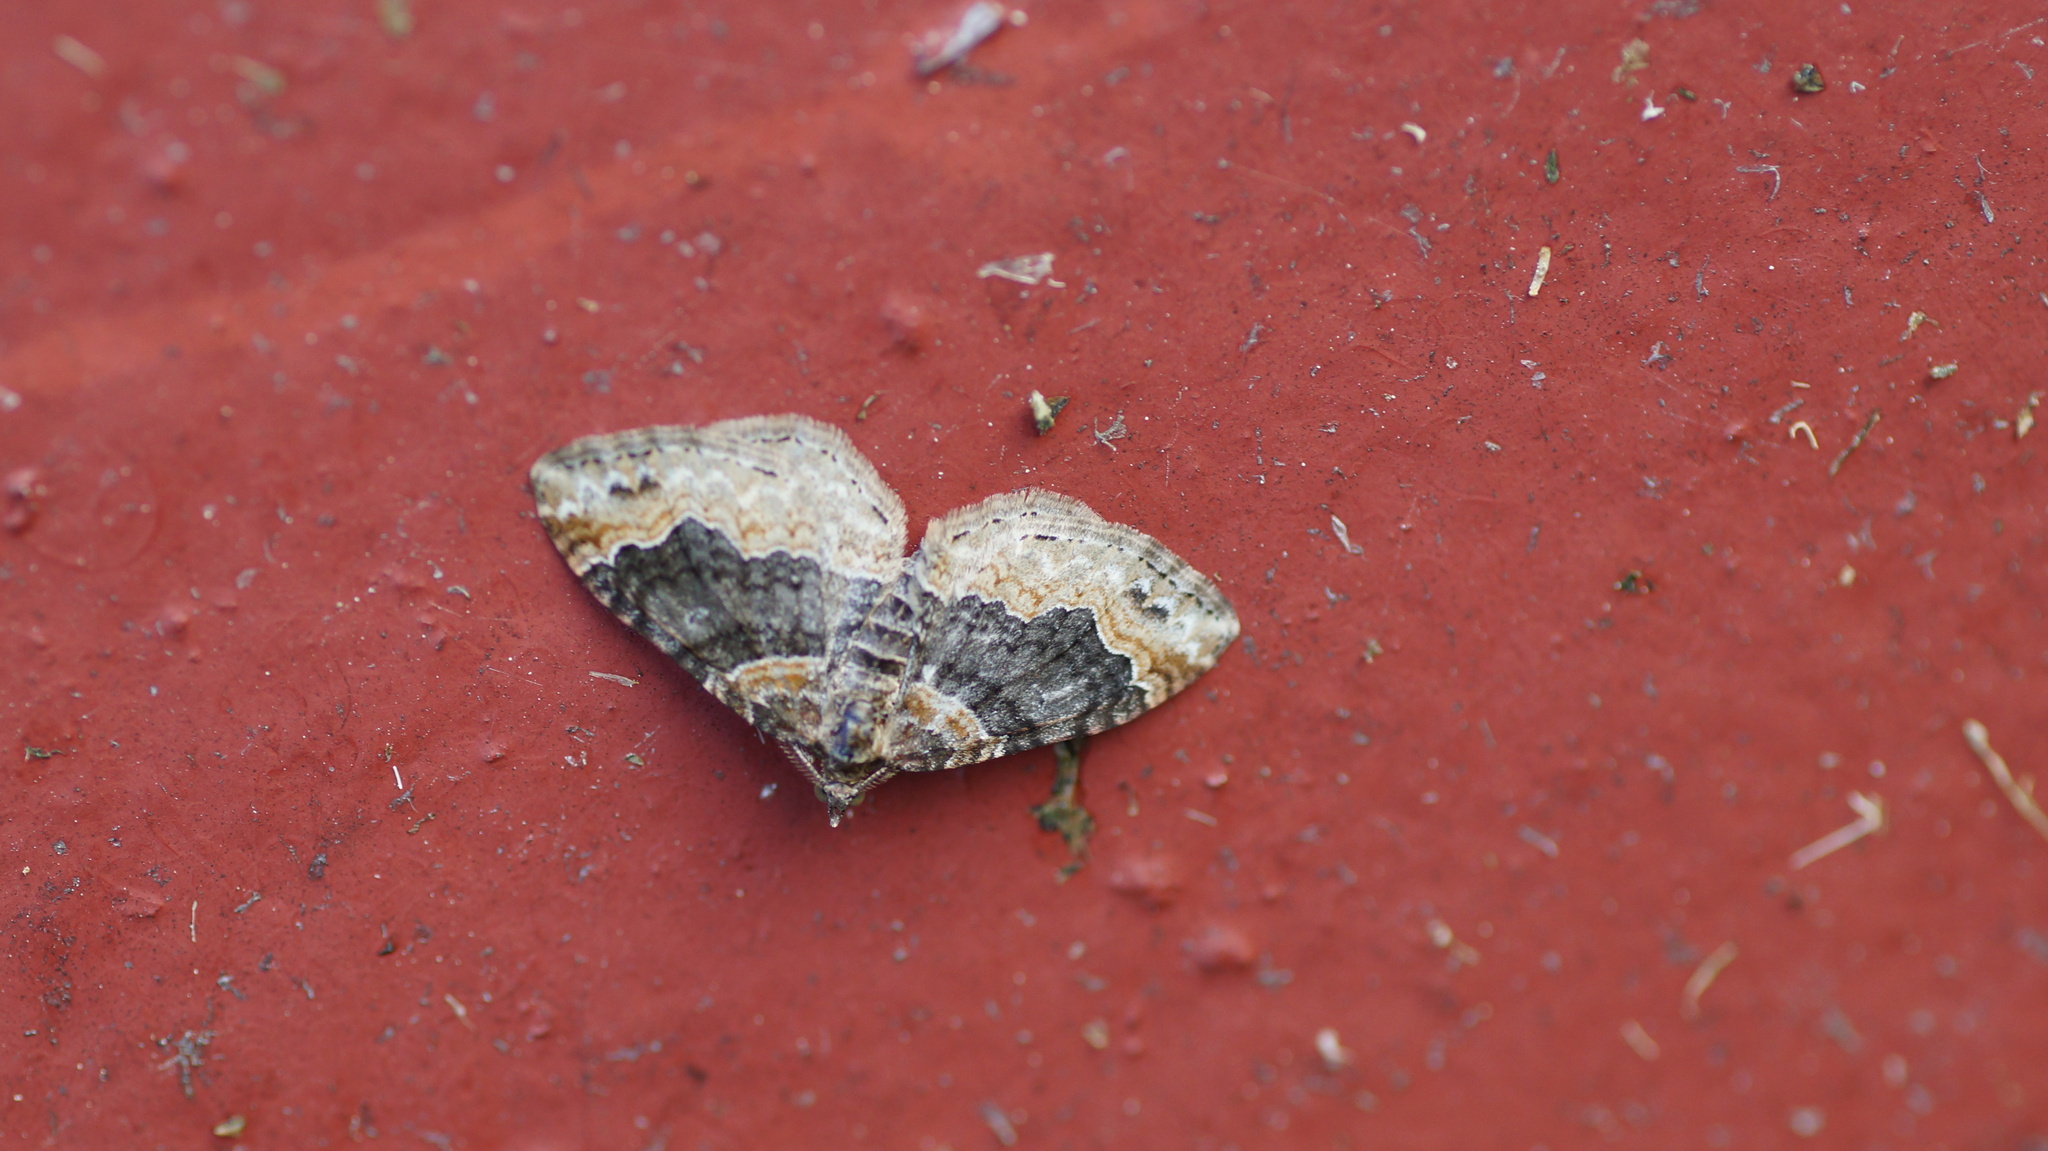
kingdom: Animalia
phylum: Arthropoda
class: Insecta
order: Lepidoptera
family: Geometridae
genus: Xanthorhoe
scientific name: Xanthorhoe ferrugata
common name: Dark-barred twin-spot carpet
